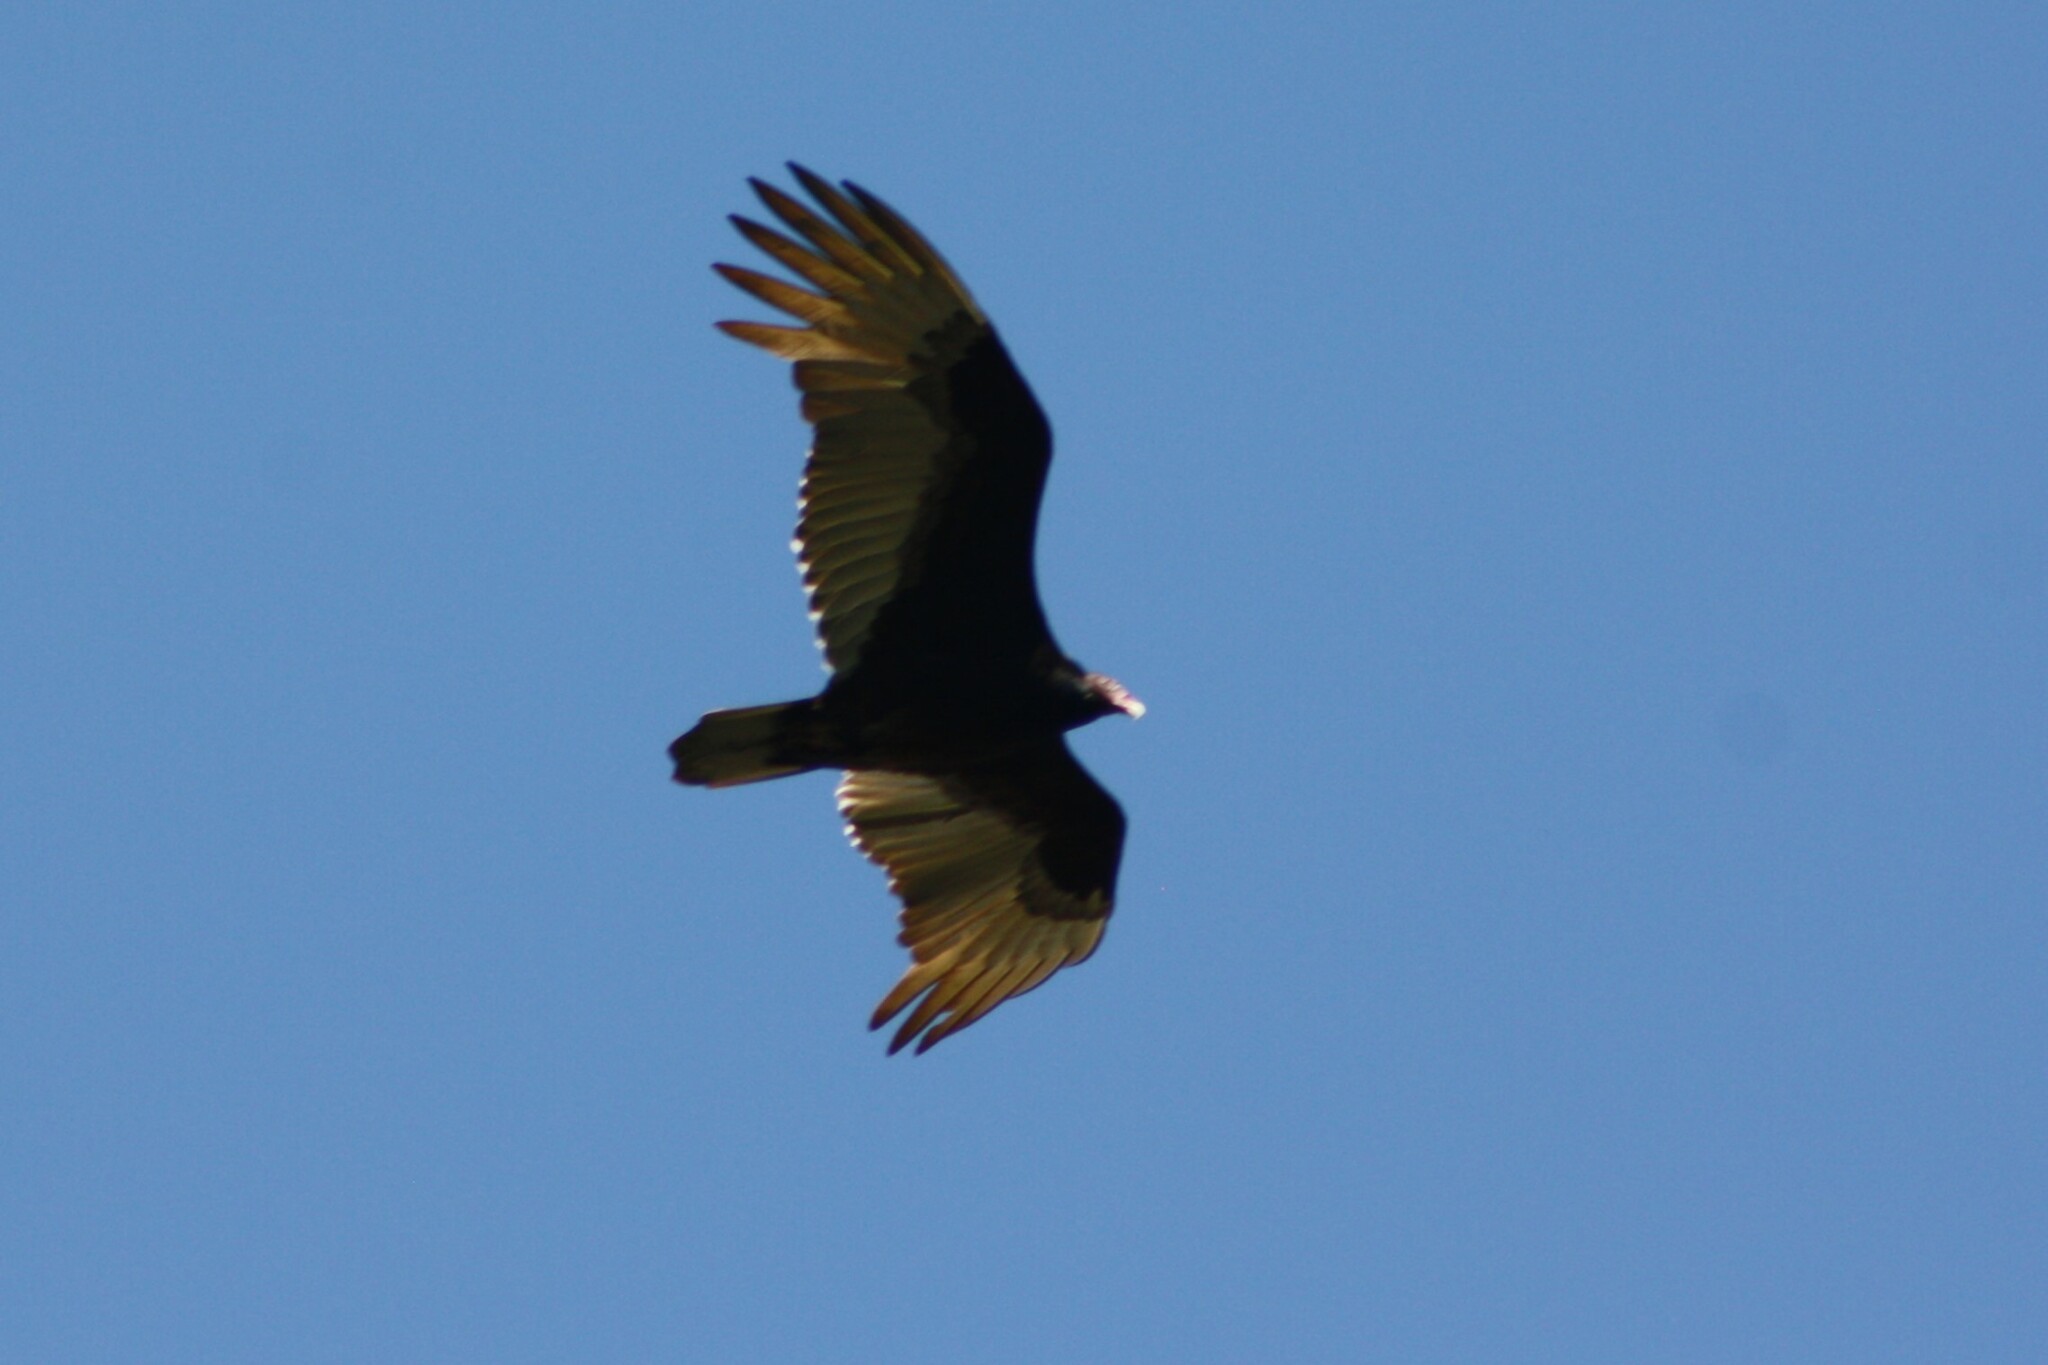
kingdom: Animalia
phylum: Chordata
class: Aves
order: Accipitriformes
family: Cathartidae
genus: Cathartes
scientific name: Cathartes aura
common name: Turkey vulture
